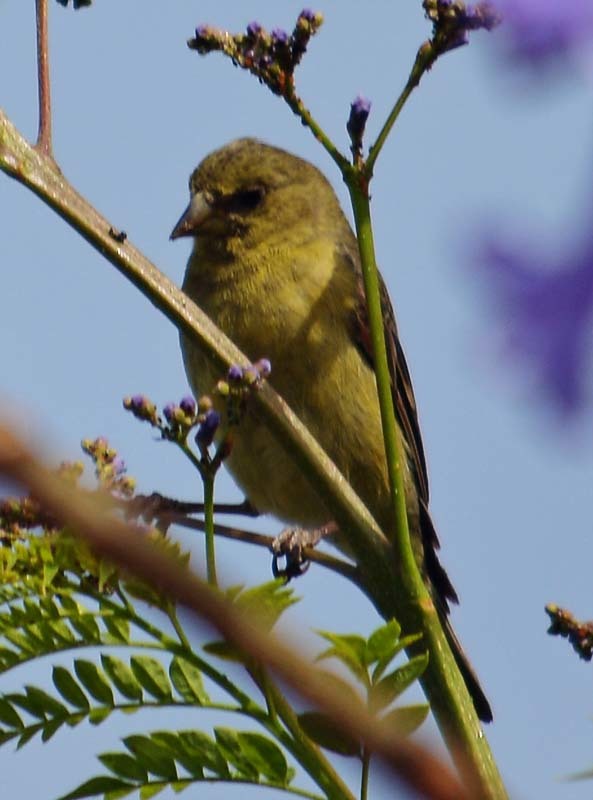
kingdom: Animalia
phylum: Chordata
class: Aves
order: Passeriformes
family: Fringillidae
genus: Spinus
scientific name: Spinus psaltria
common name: Lesser goldfinch
